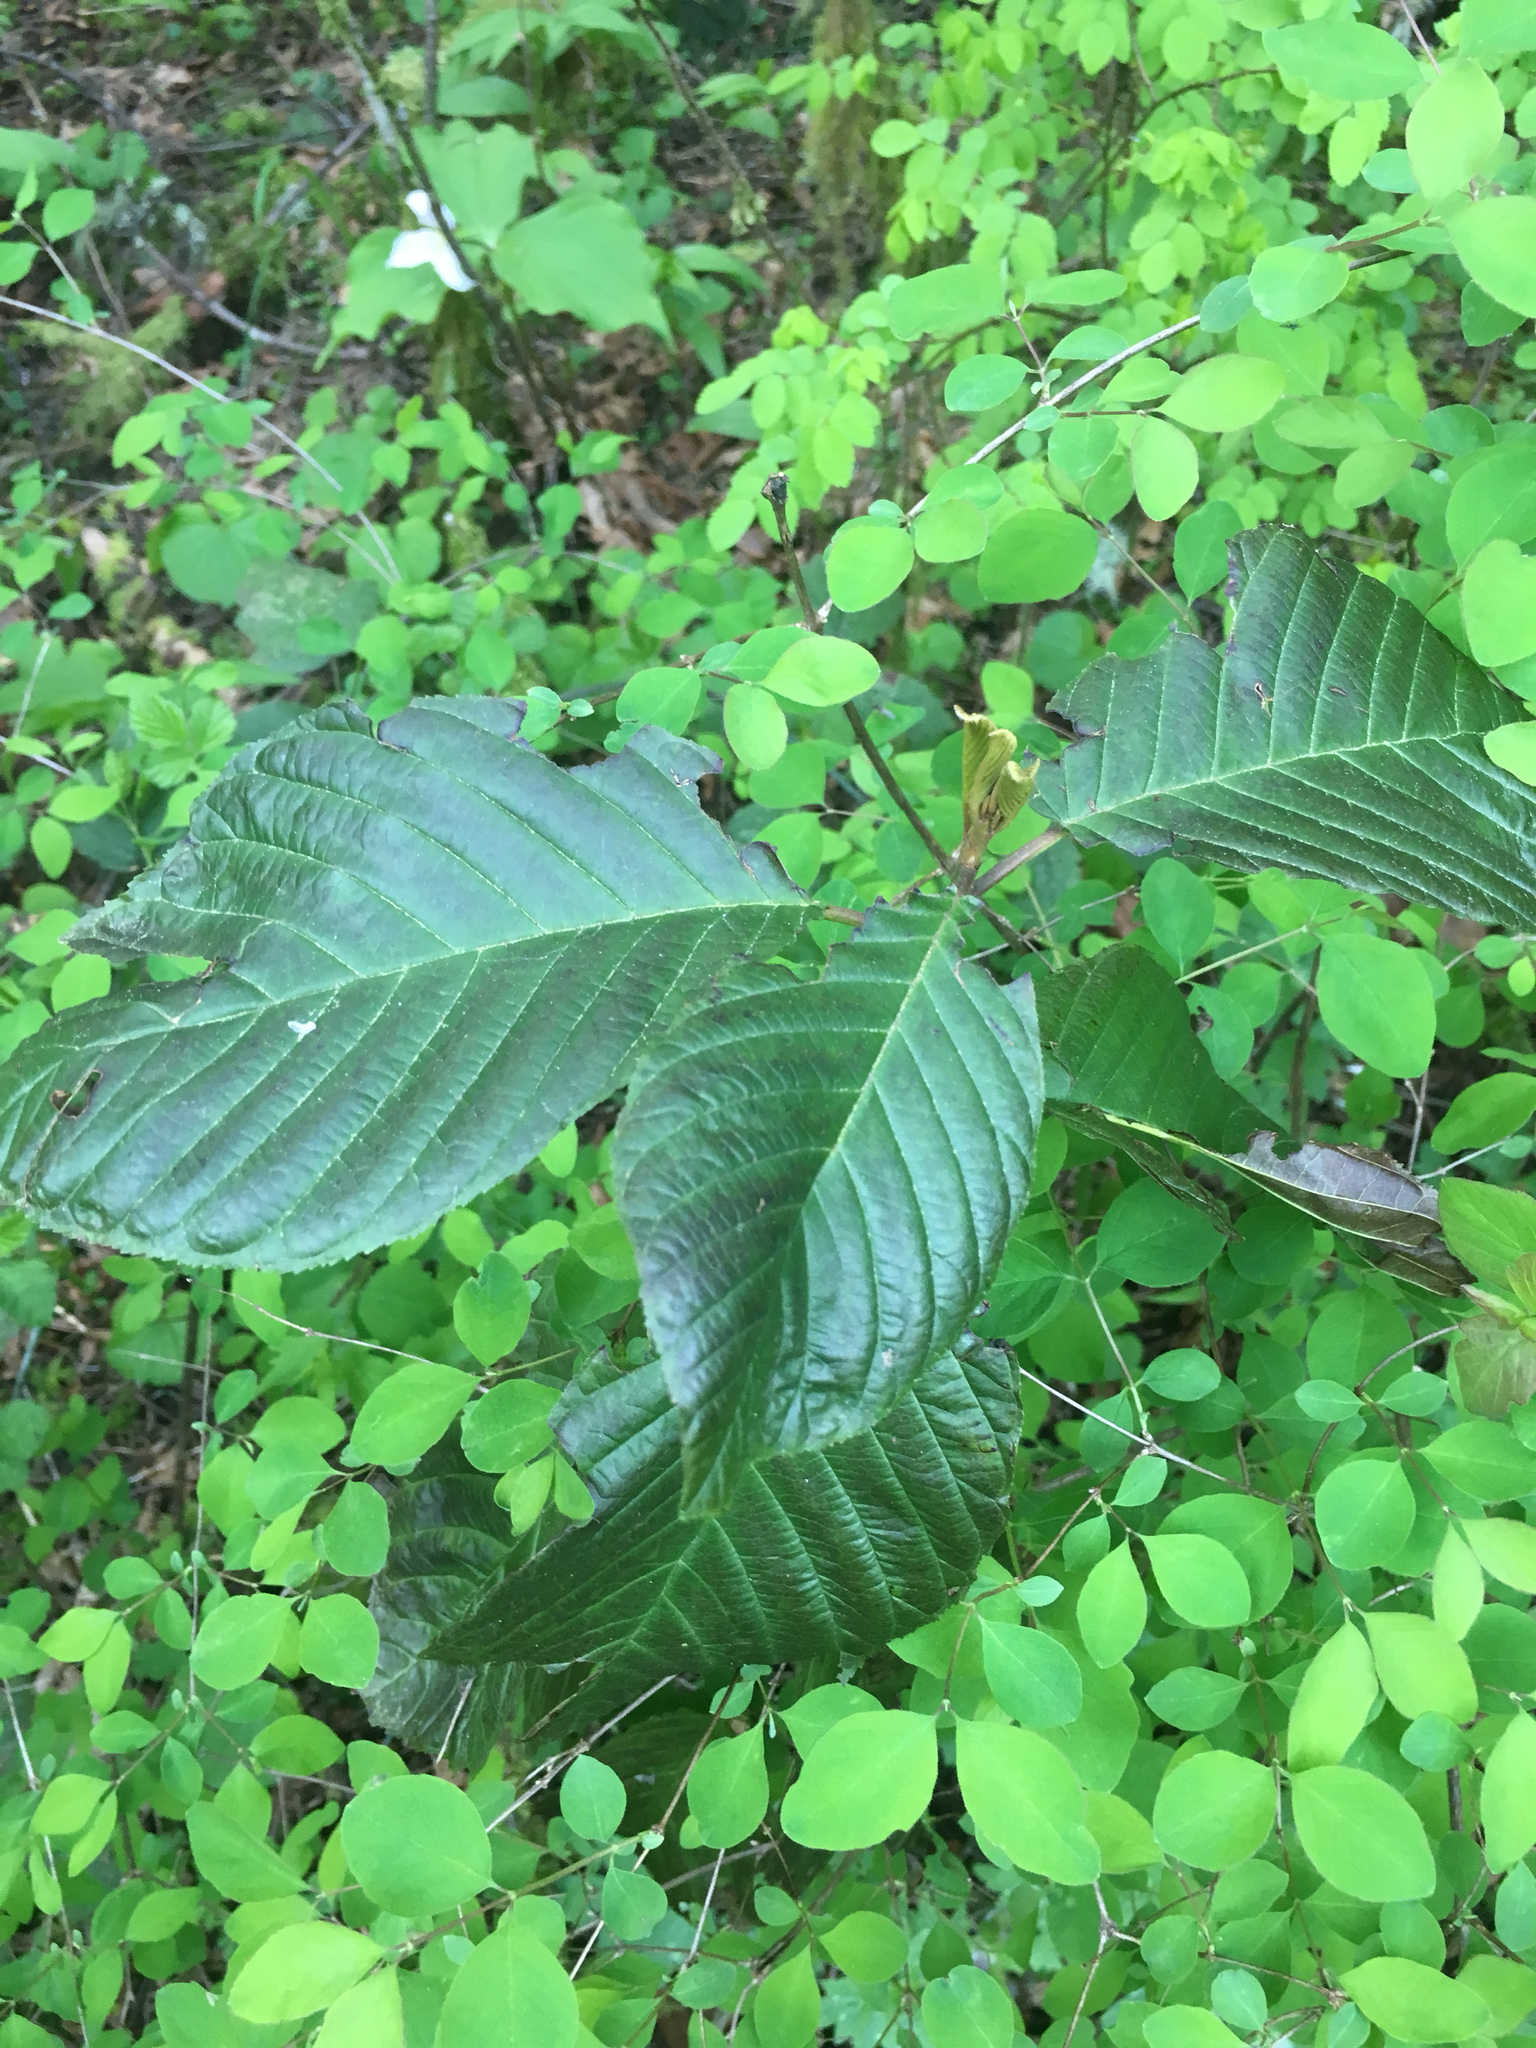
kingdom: Plantae
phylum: Tracheophyta
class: Magnoliopsida
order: Rosales
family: Rhamnaceae
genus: Frangula
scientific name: Frangula purshiana
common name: Cascara buckthorn
